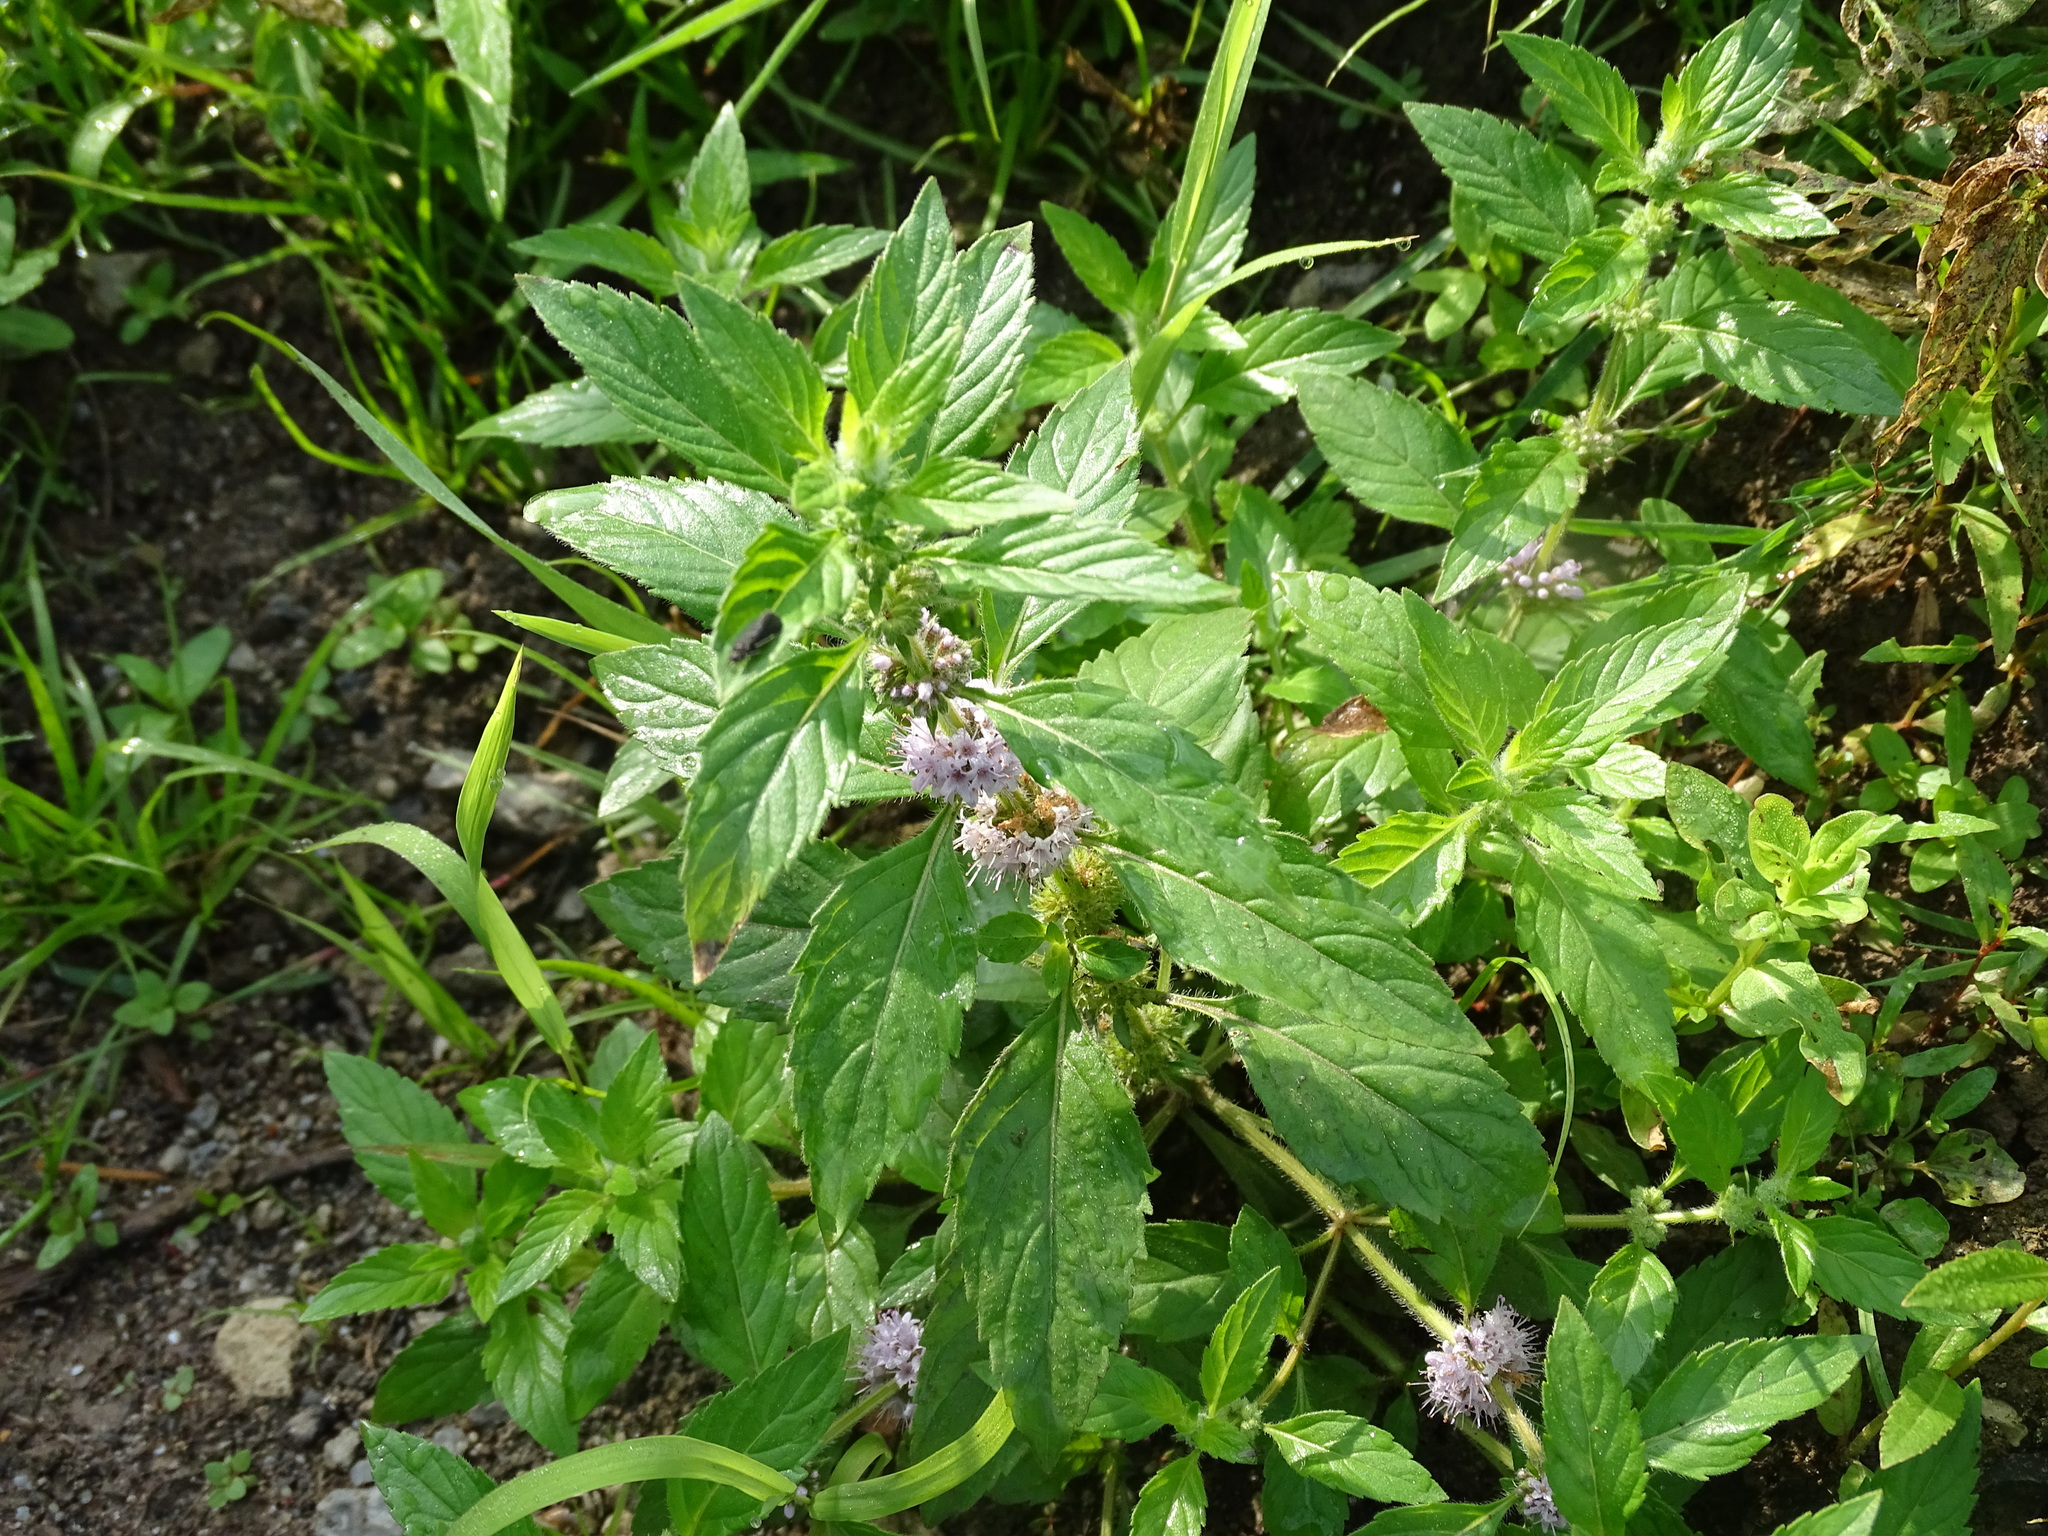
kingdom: Plantae
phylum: Tracheophyta
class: Magnoliopsida
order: Lamiales
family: Lamiaceae
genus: Mentha
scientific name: Mentha canadensis
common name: American corn mint
